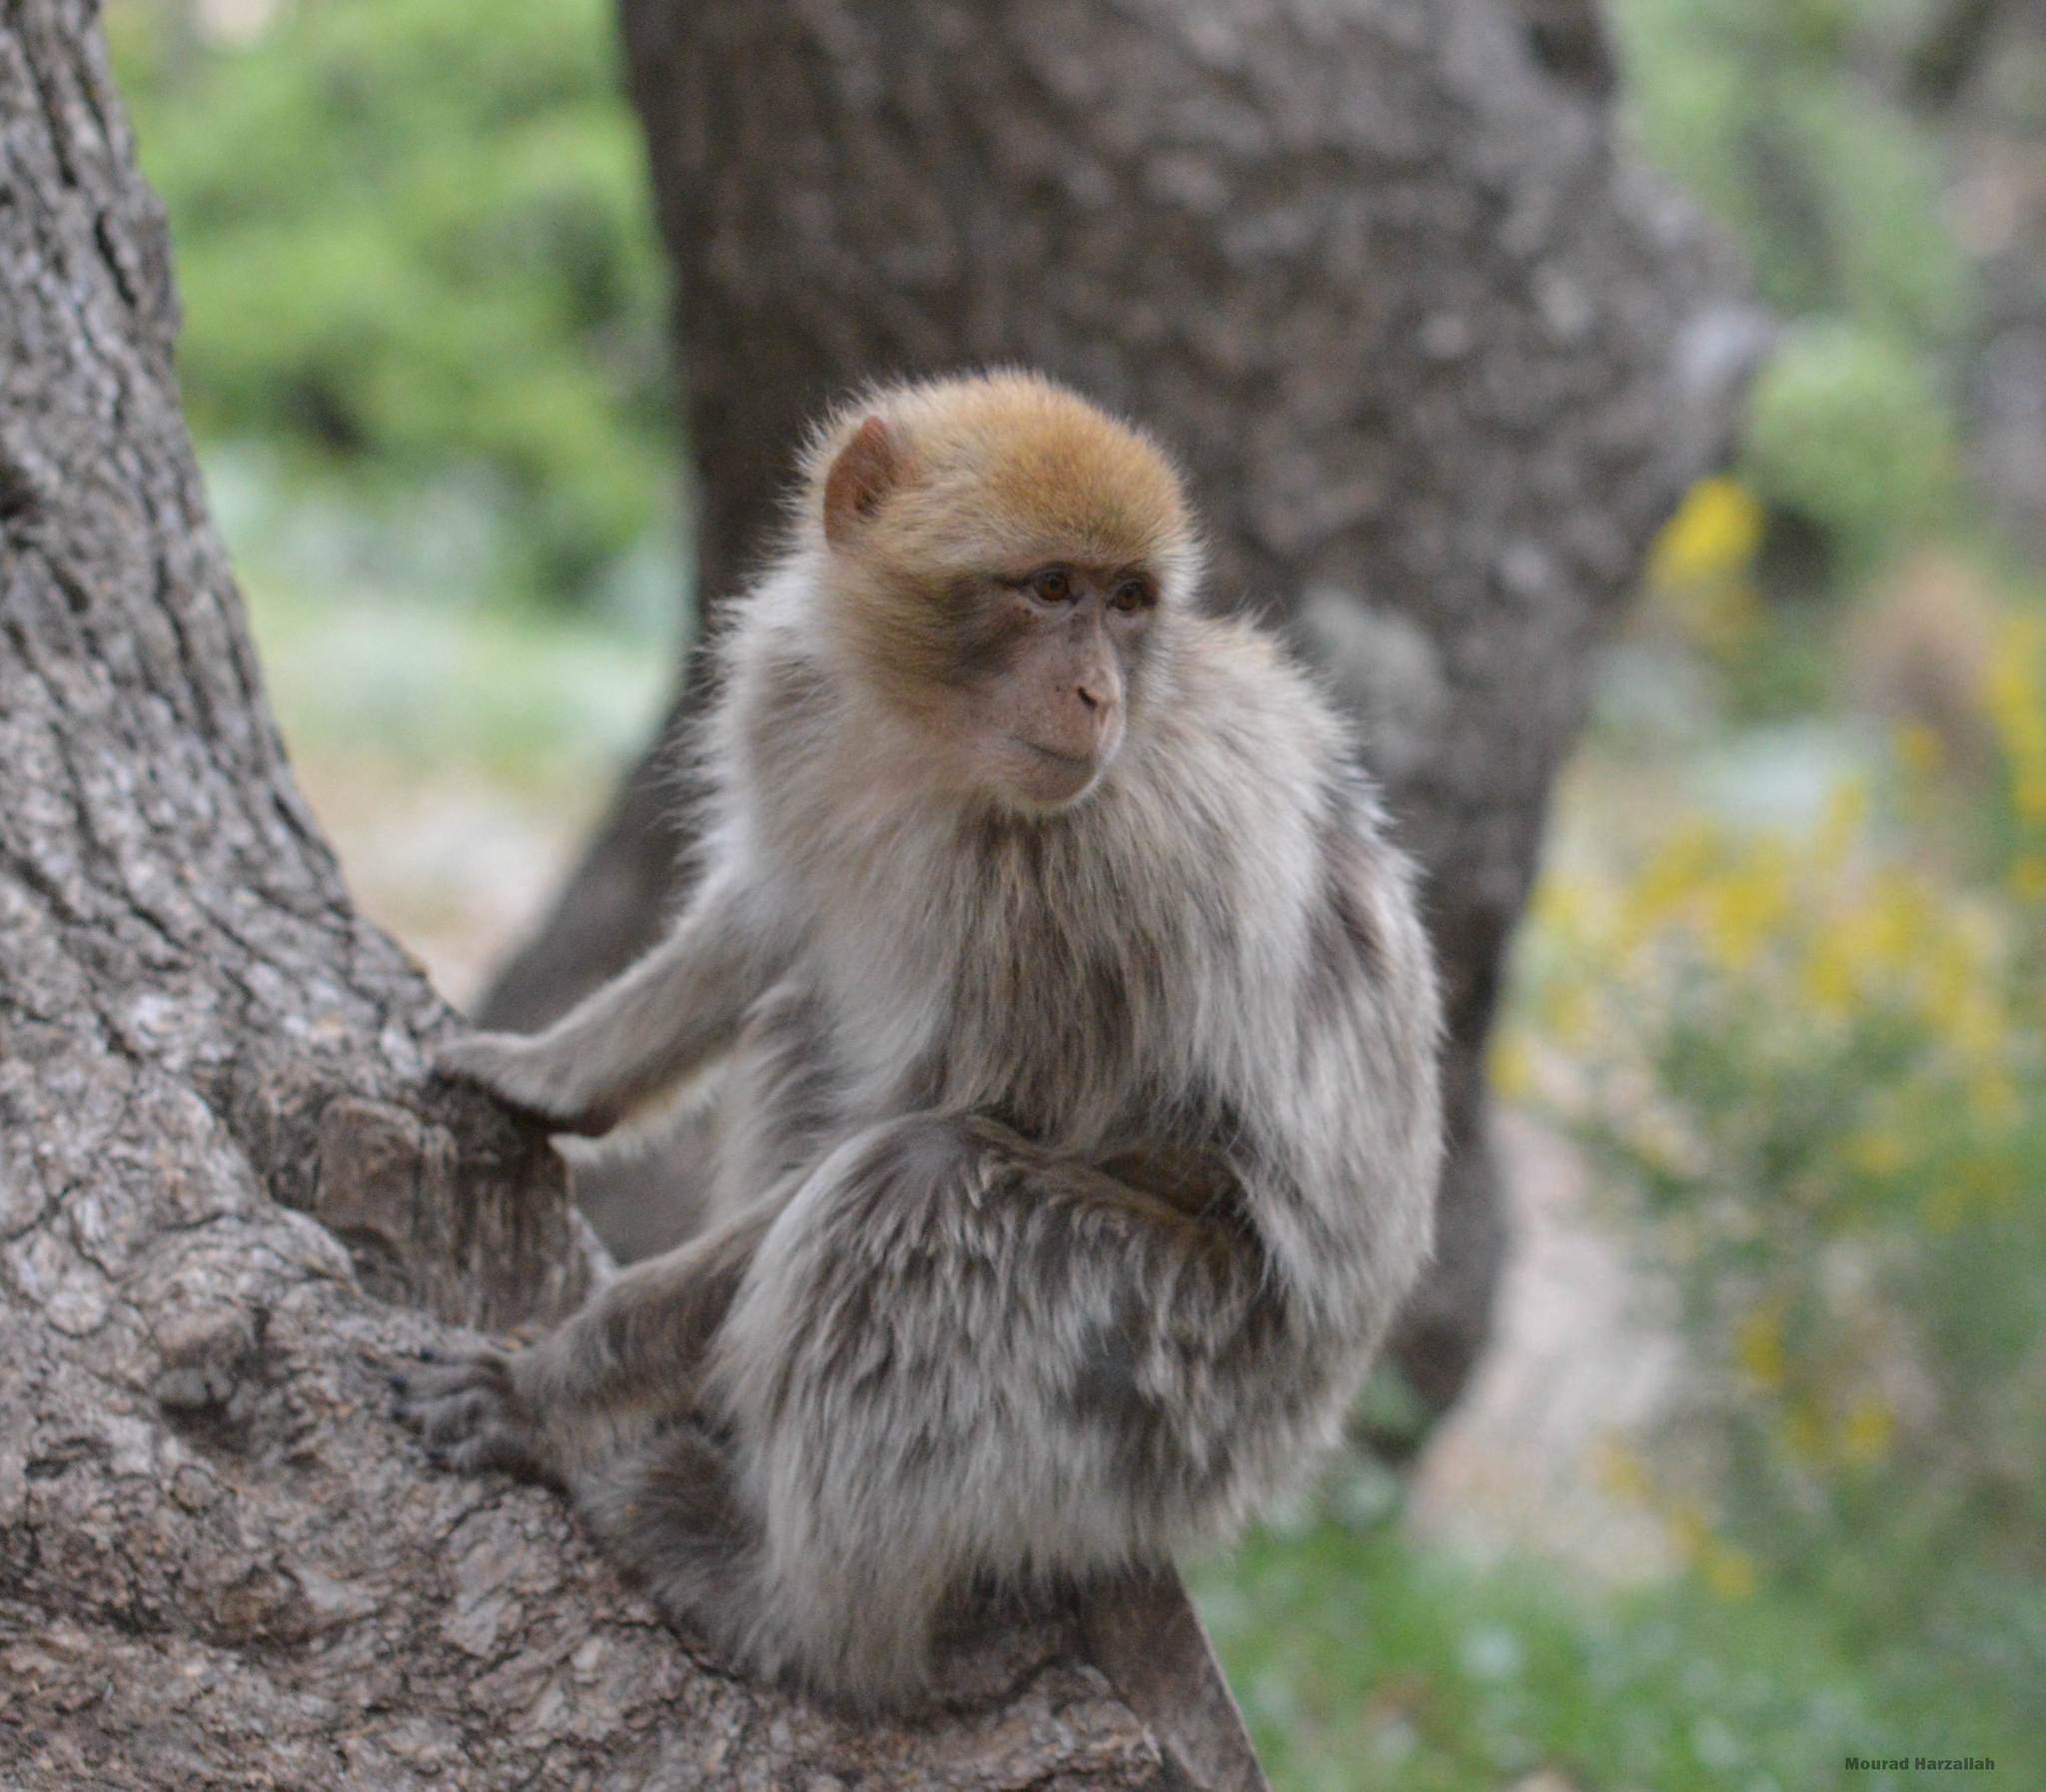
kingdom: Animalia
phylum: Chordata
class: Mammalia
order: Primates
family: Cercopithecidae
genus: Macaca
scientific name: Macaca sylvanus
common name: Barbary macaque
